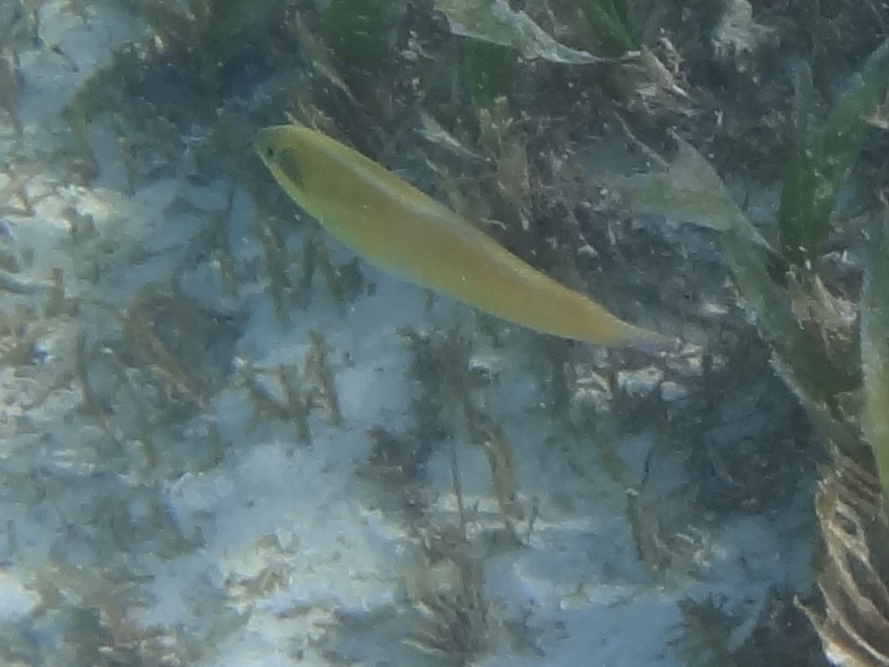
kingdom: Animalia
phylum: Chordata
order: Perciformes
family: Labridae
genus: Halichoeres
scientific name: Halichoeres garnoti
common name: Yellowhead wrasse
